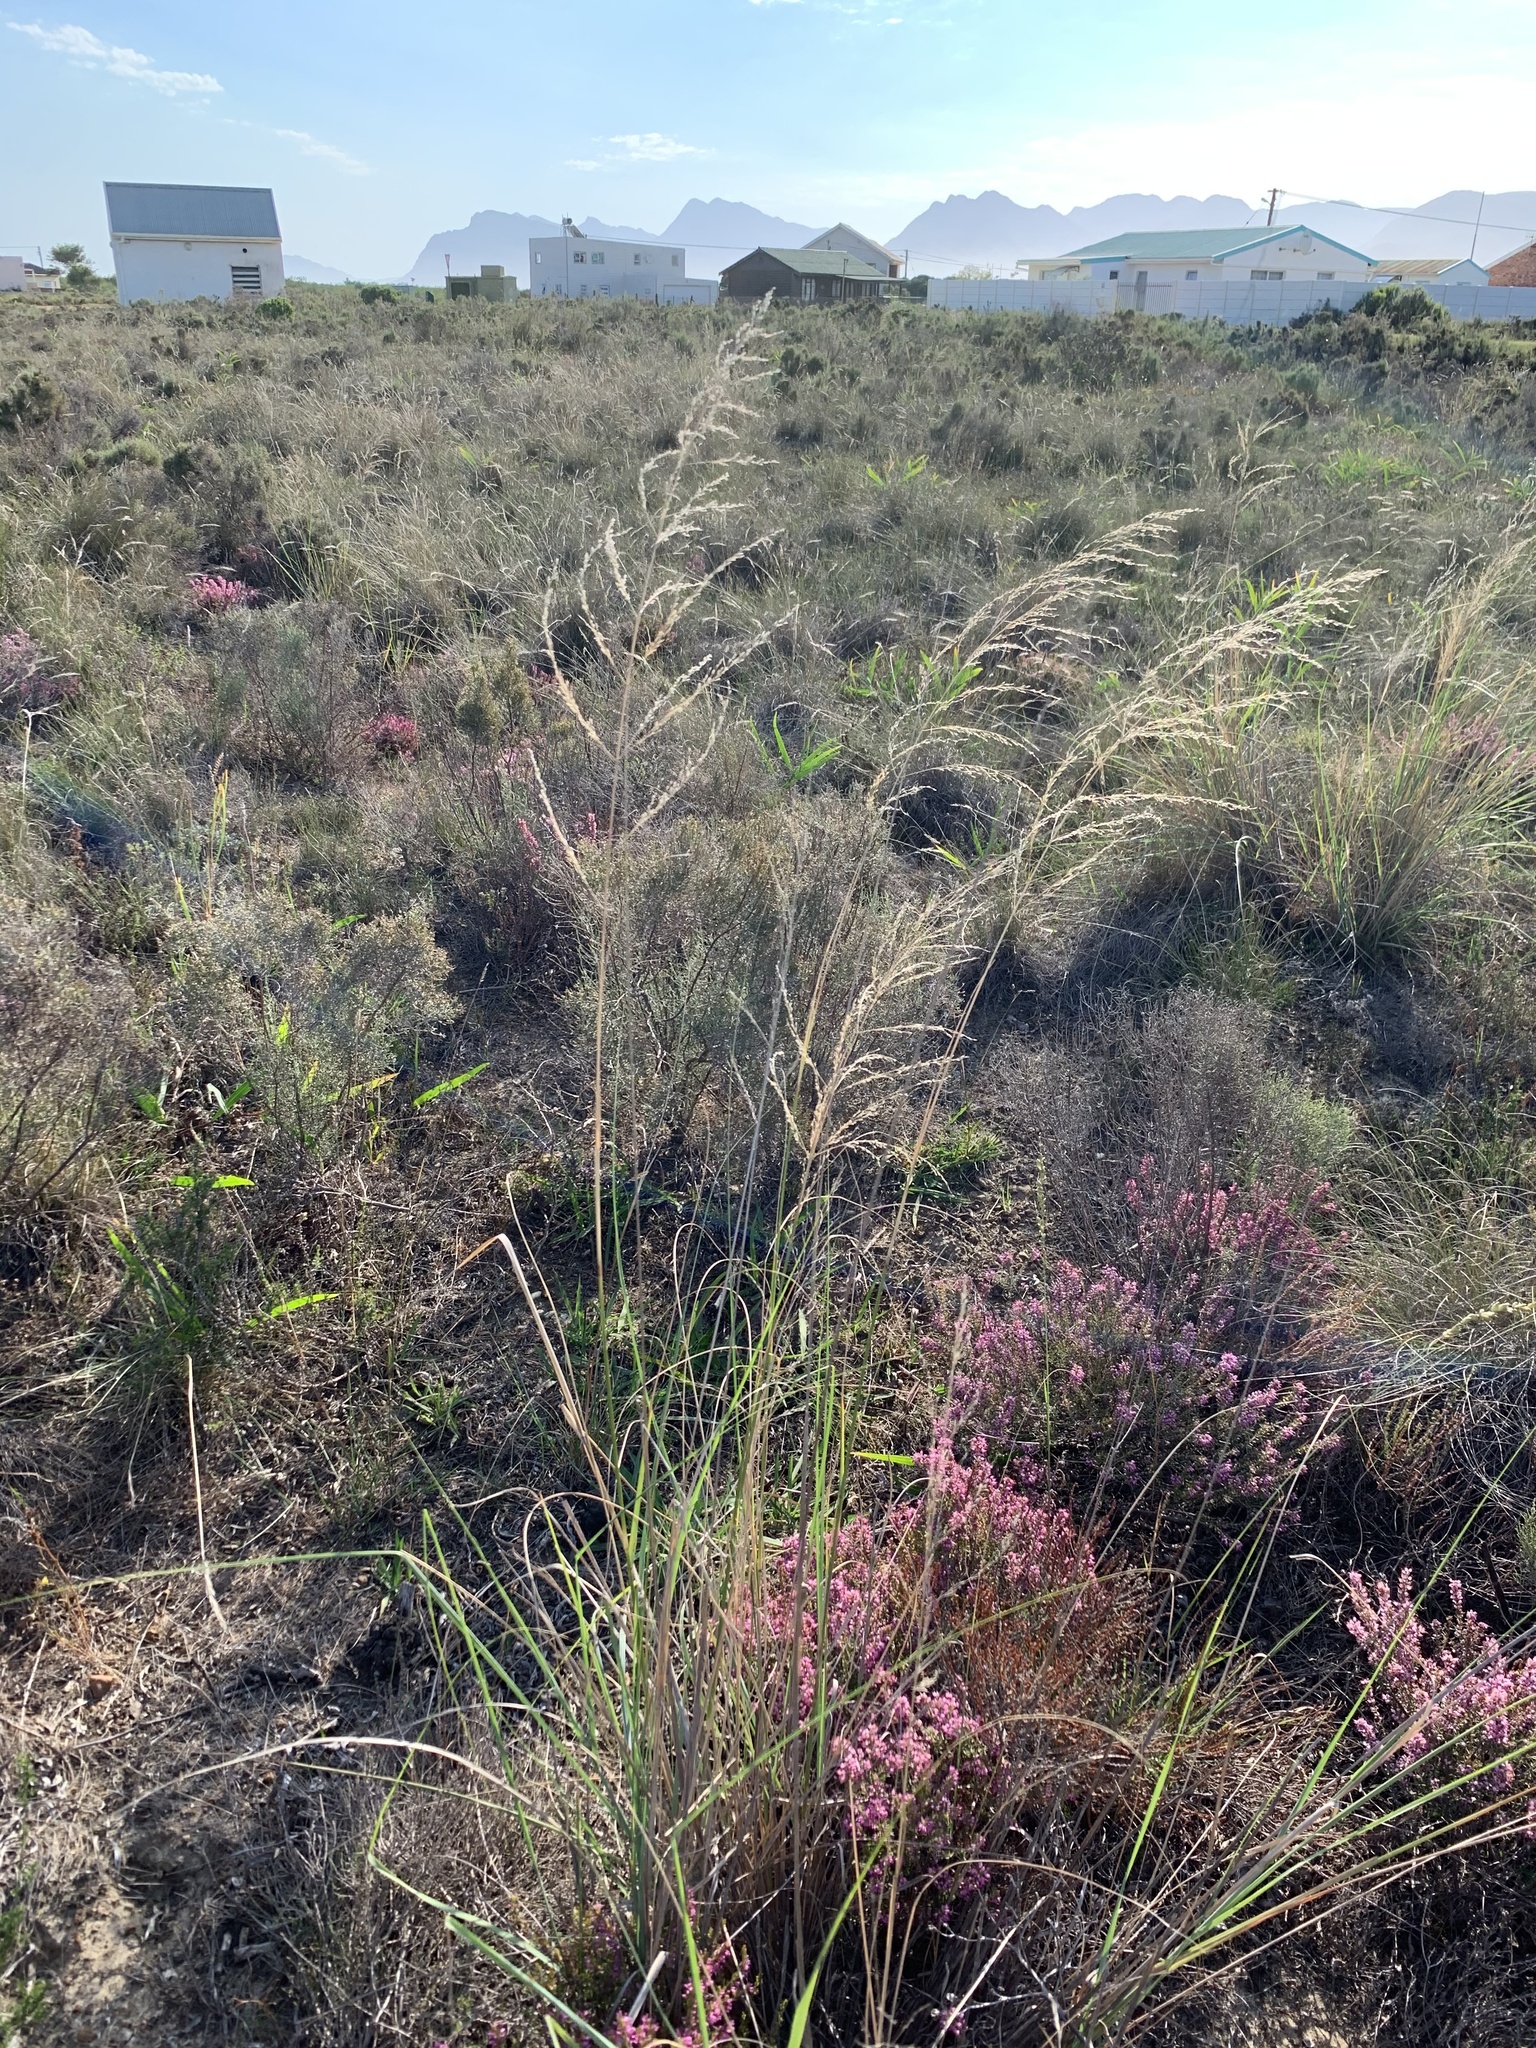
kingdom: Plantae
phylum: Tracheophyta
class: Liliopsida
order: Poales
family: Poaceae
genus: Eragrostis
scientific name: Eragrostis curvula
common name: African love-grass
